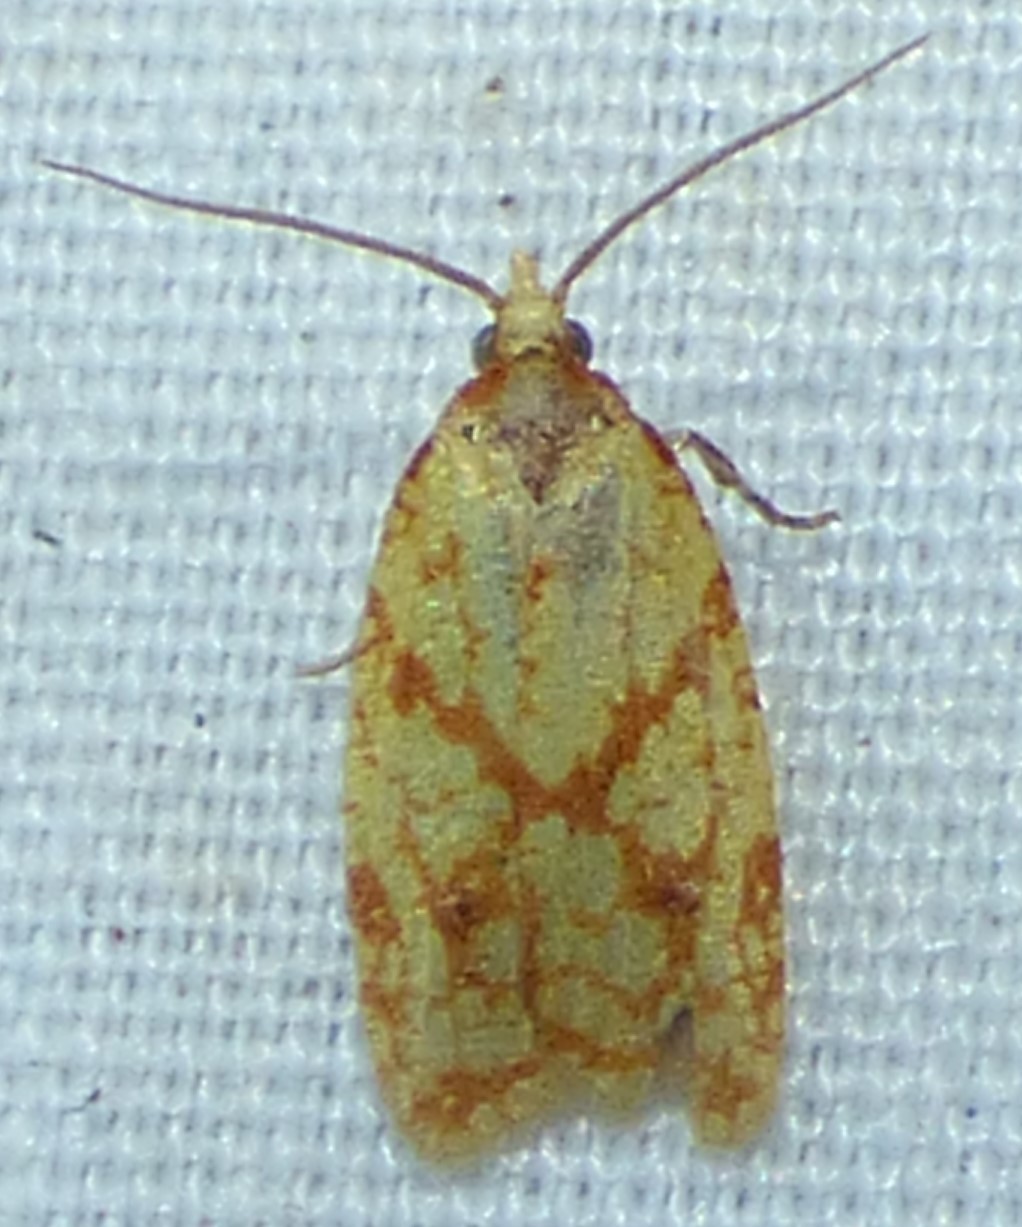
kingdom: Animalia
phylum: Arthropoda
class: Insecta
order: Lepidoptera
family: Tortricidae
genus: Sparganothis
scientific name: Sparganothis sulfureana
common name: Sparganothis fruitworm moth
